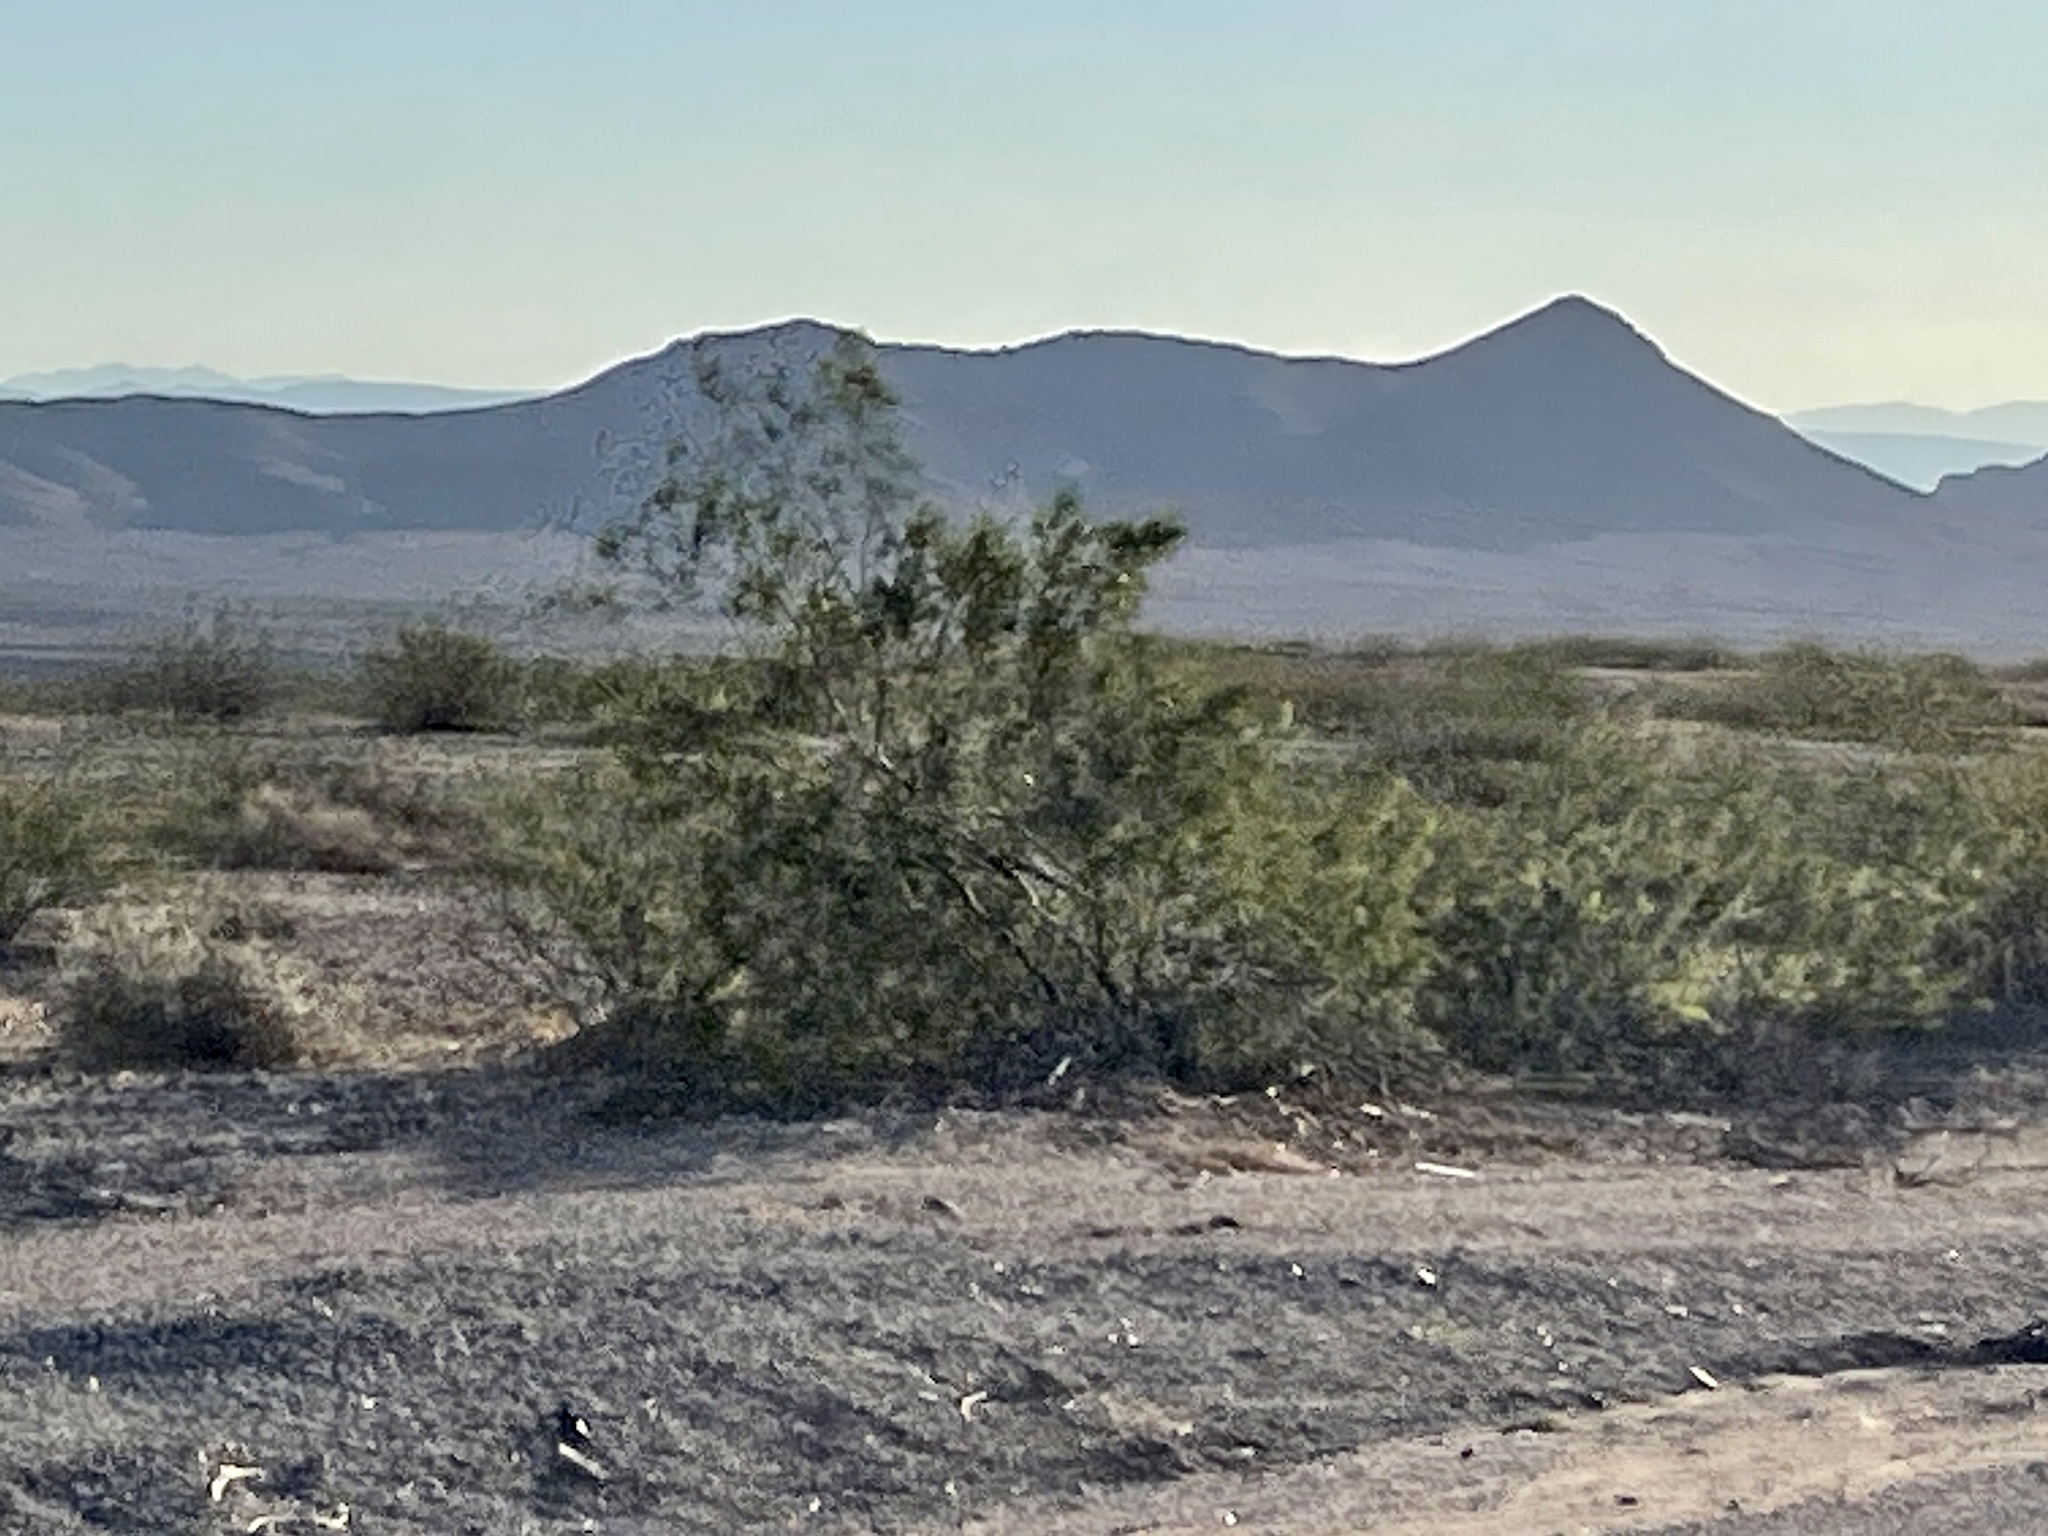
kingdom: Plantae
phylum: Tracheophyta
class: Magnoliopsida
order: Zygophyllales
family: Zygophyllaceae
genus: Larrea
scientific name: Larrea tridentata
